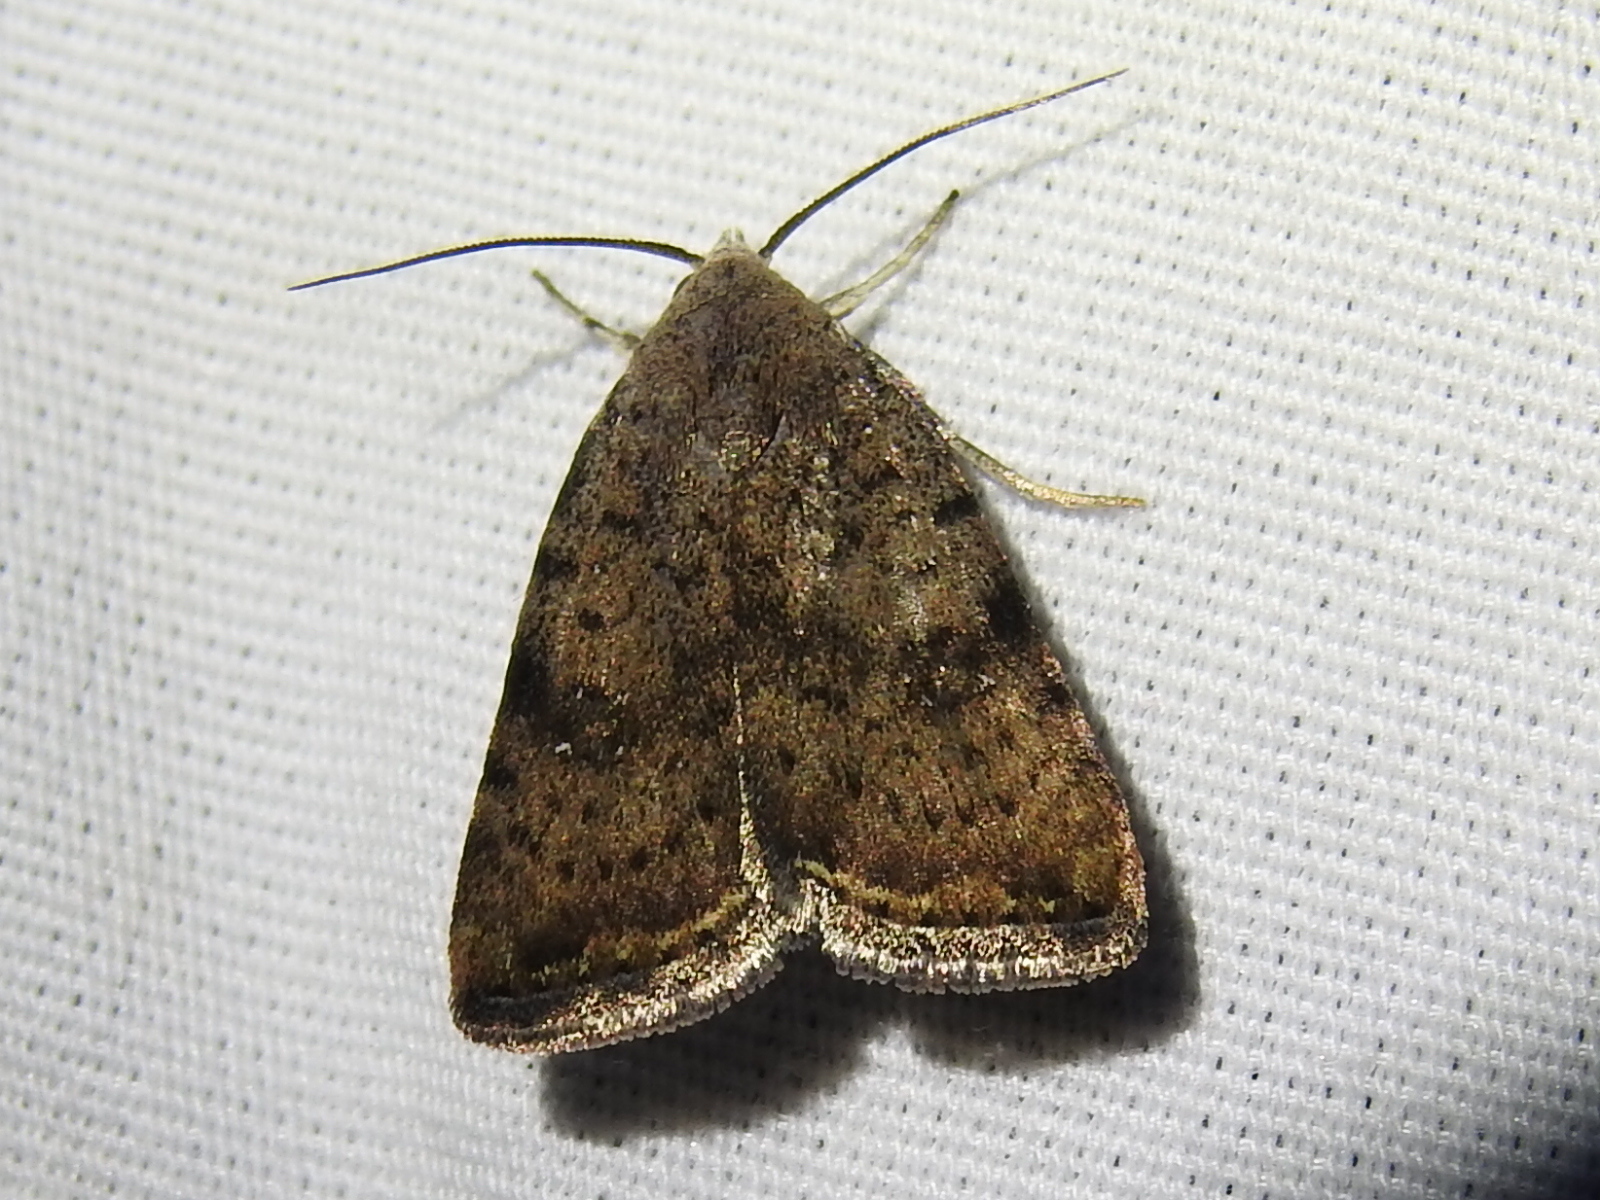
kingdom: Animalia
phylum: Arthropoda
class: Insecta
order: Lepidoptera
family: Noctuidae
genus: Micrathetis
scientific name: Micrathetis triplex
